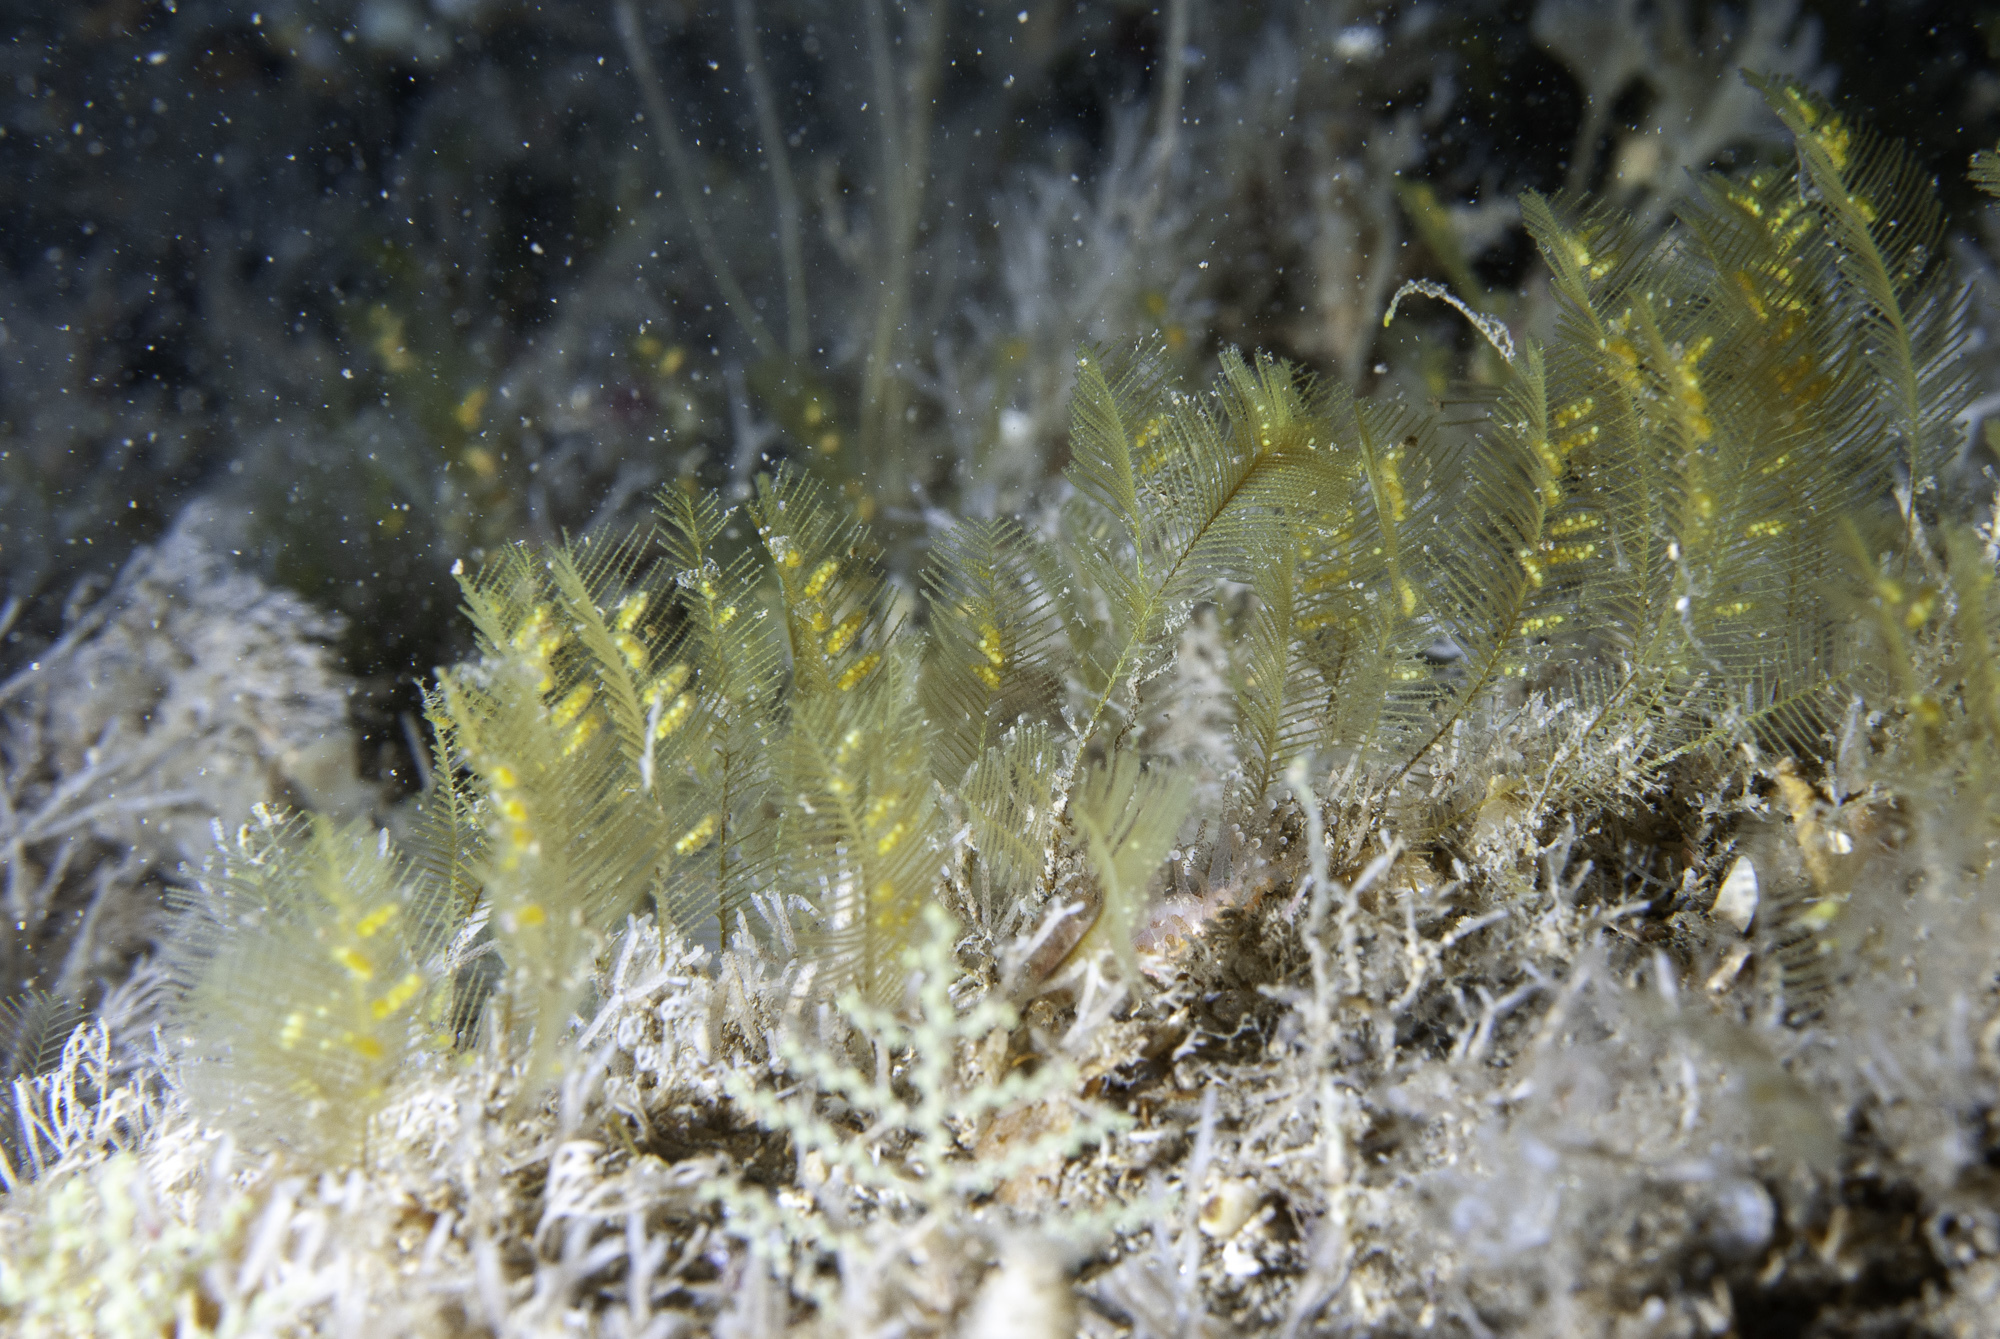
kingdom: Animalia
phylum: Cnidaria
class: Hydrozoa
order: Leptothecata
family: Aglaopheniidae
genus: Aglaophenia
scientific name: Aglaophenia tubulifera
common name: Plume hydroid
